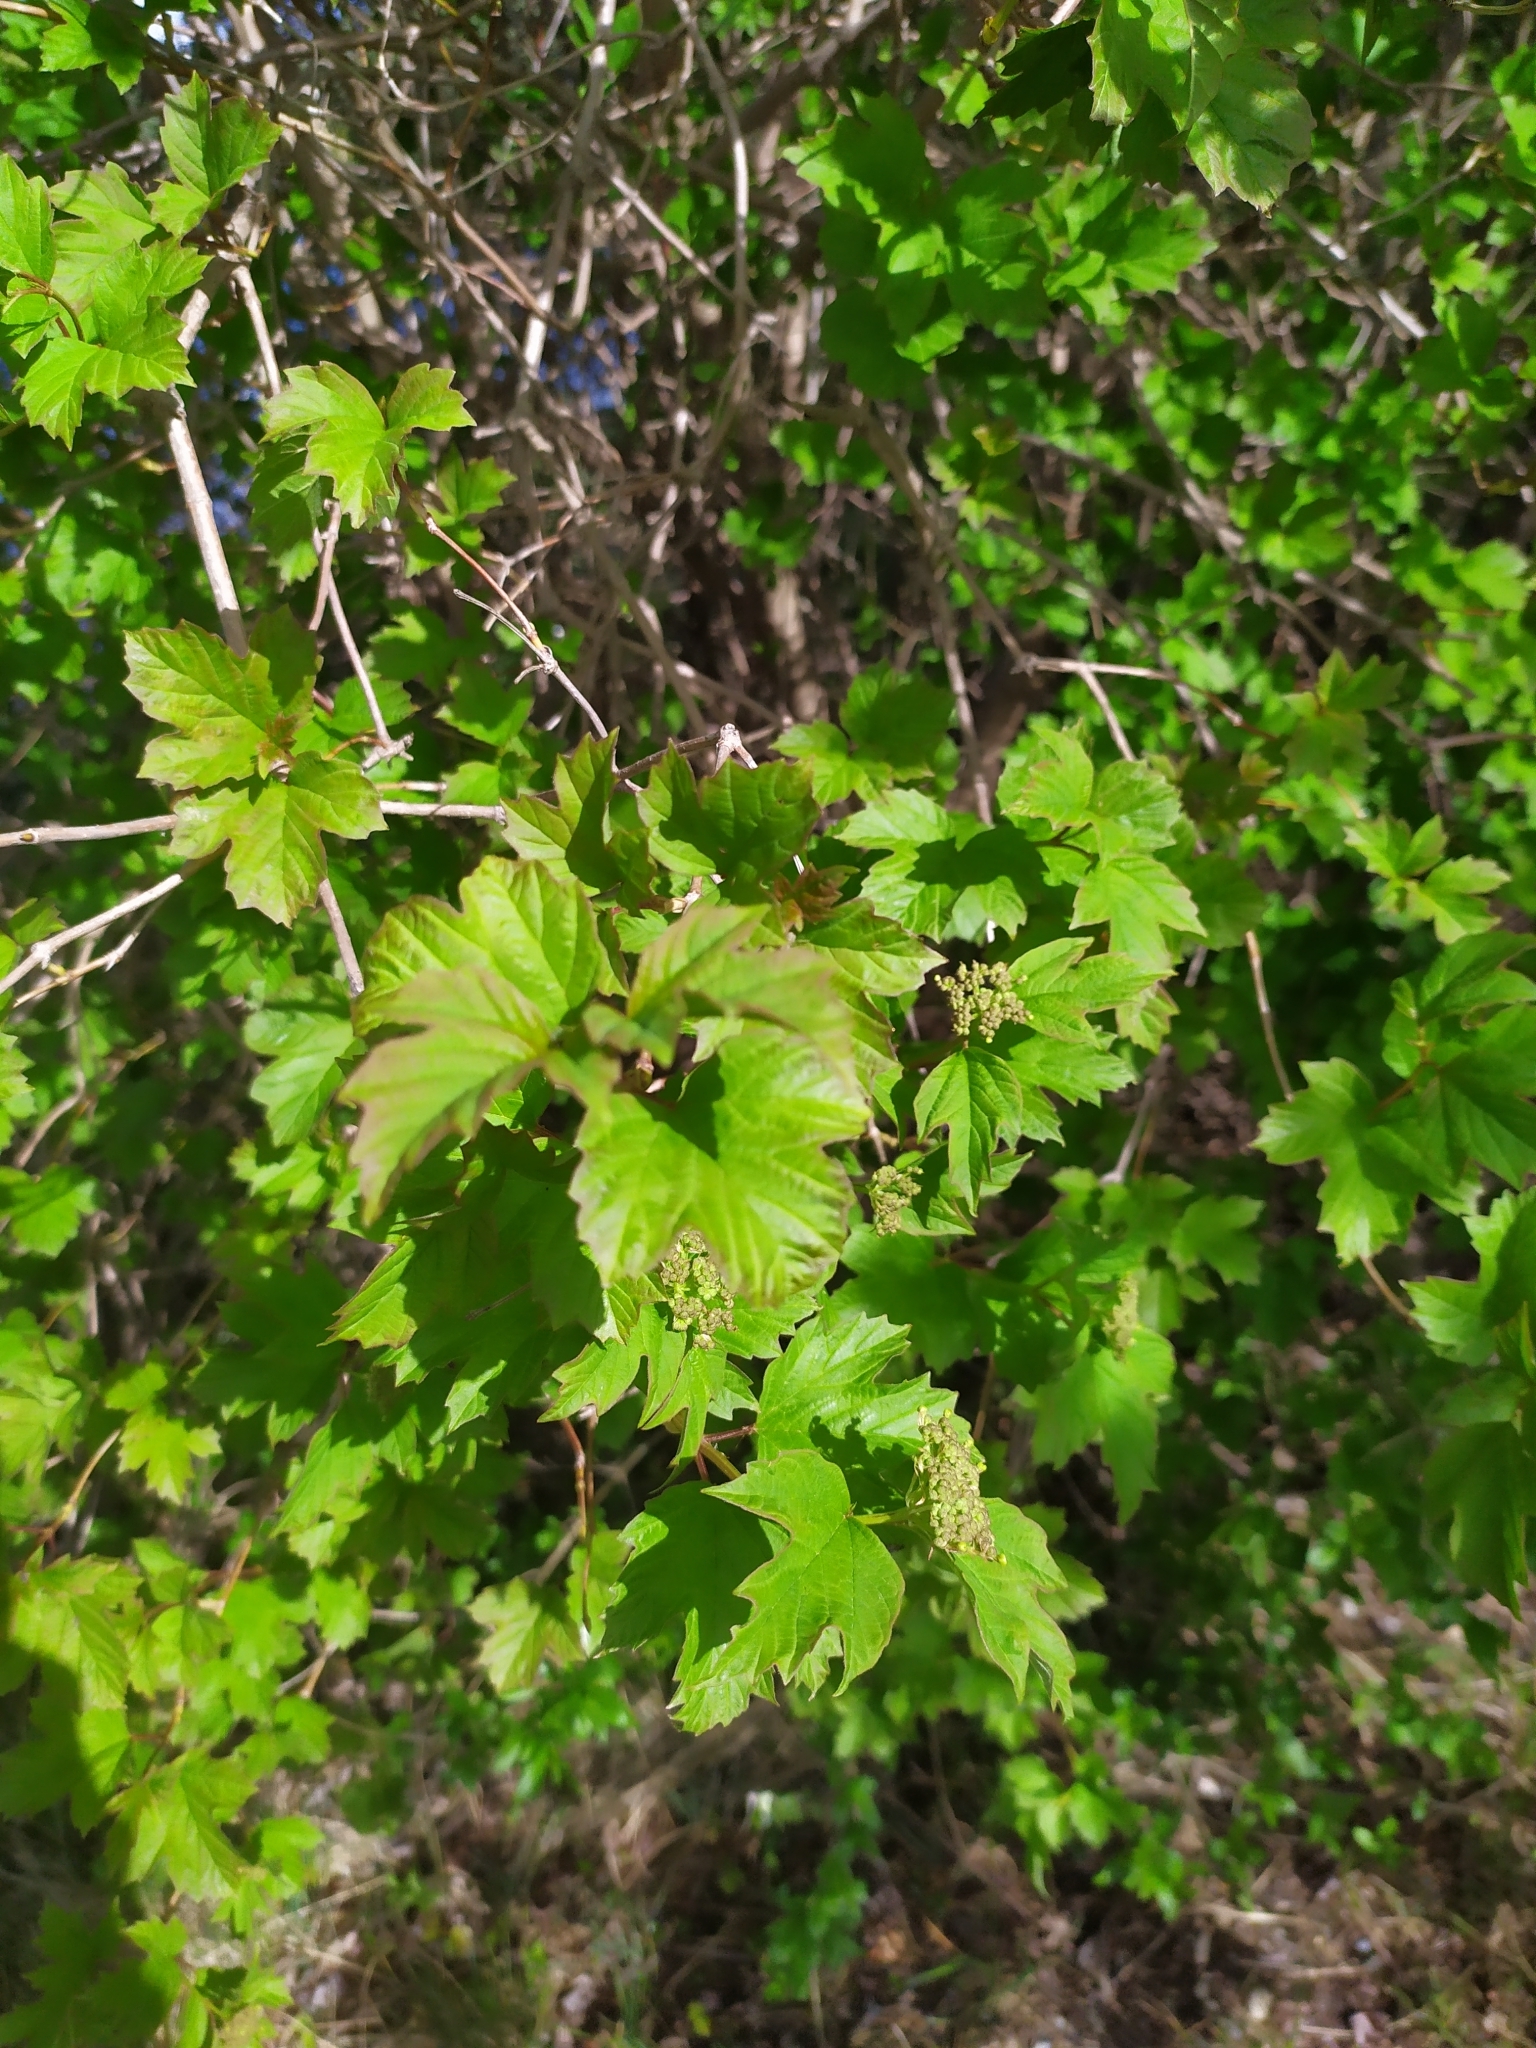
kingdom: Plantae
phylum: Tracheophyta
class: Magnoliopsida
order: Dipsacales
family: Viburnaceae
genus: Viburnum
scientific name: Viburnum opulus
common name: Guelder-rose
